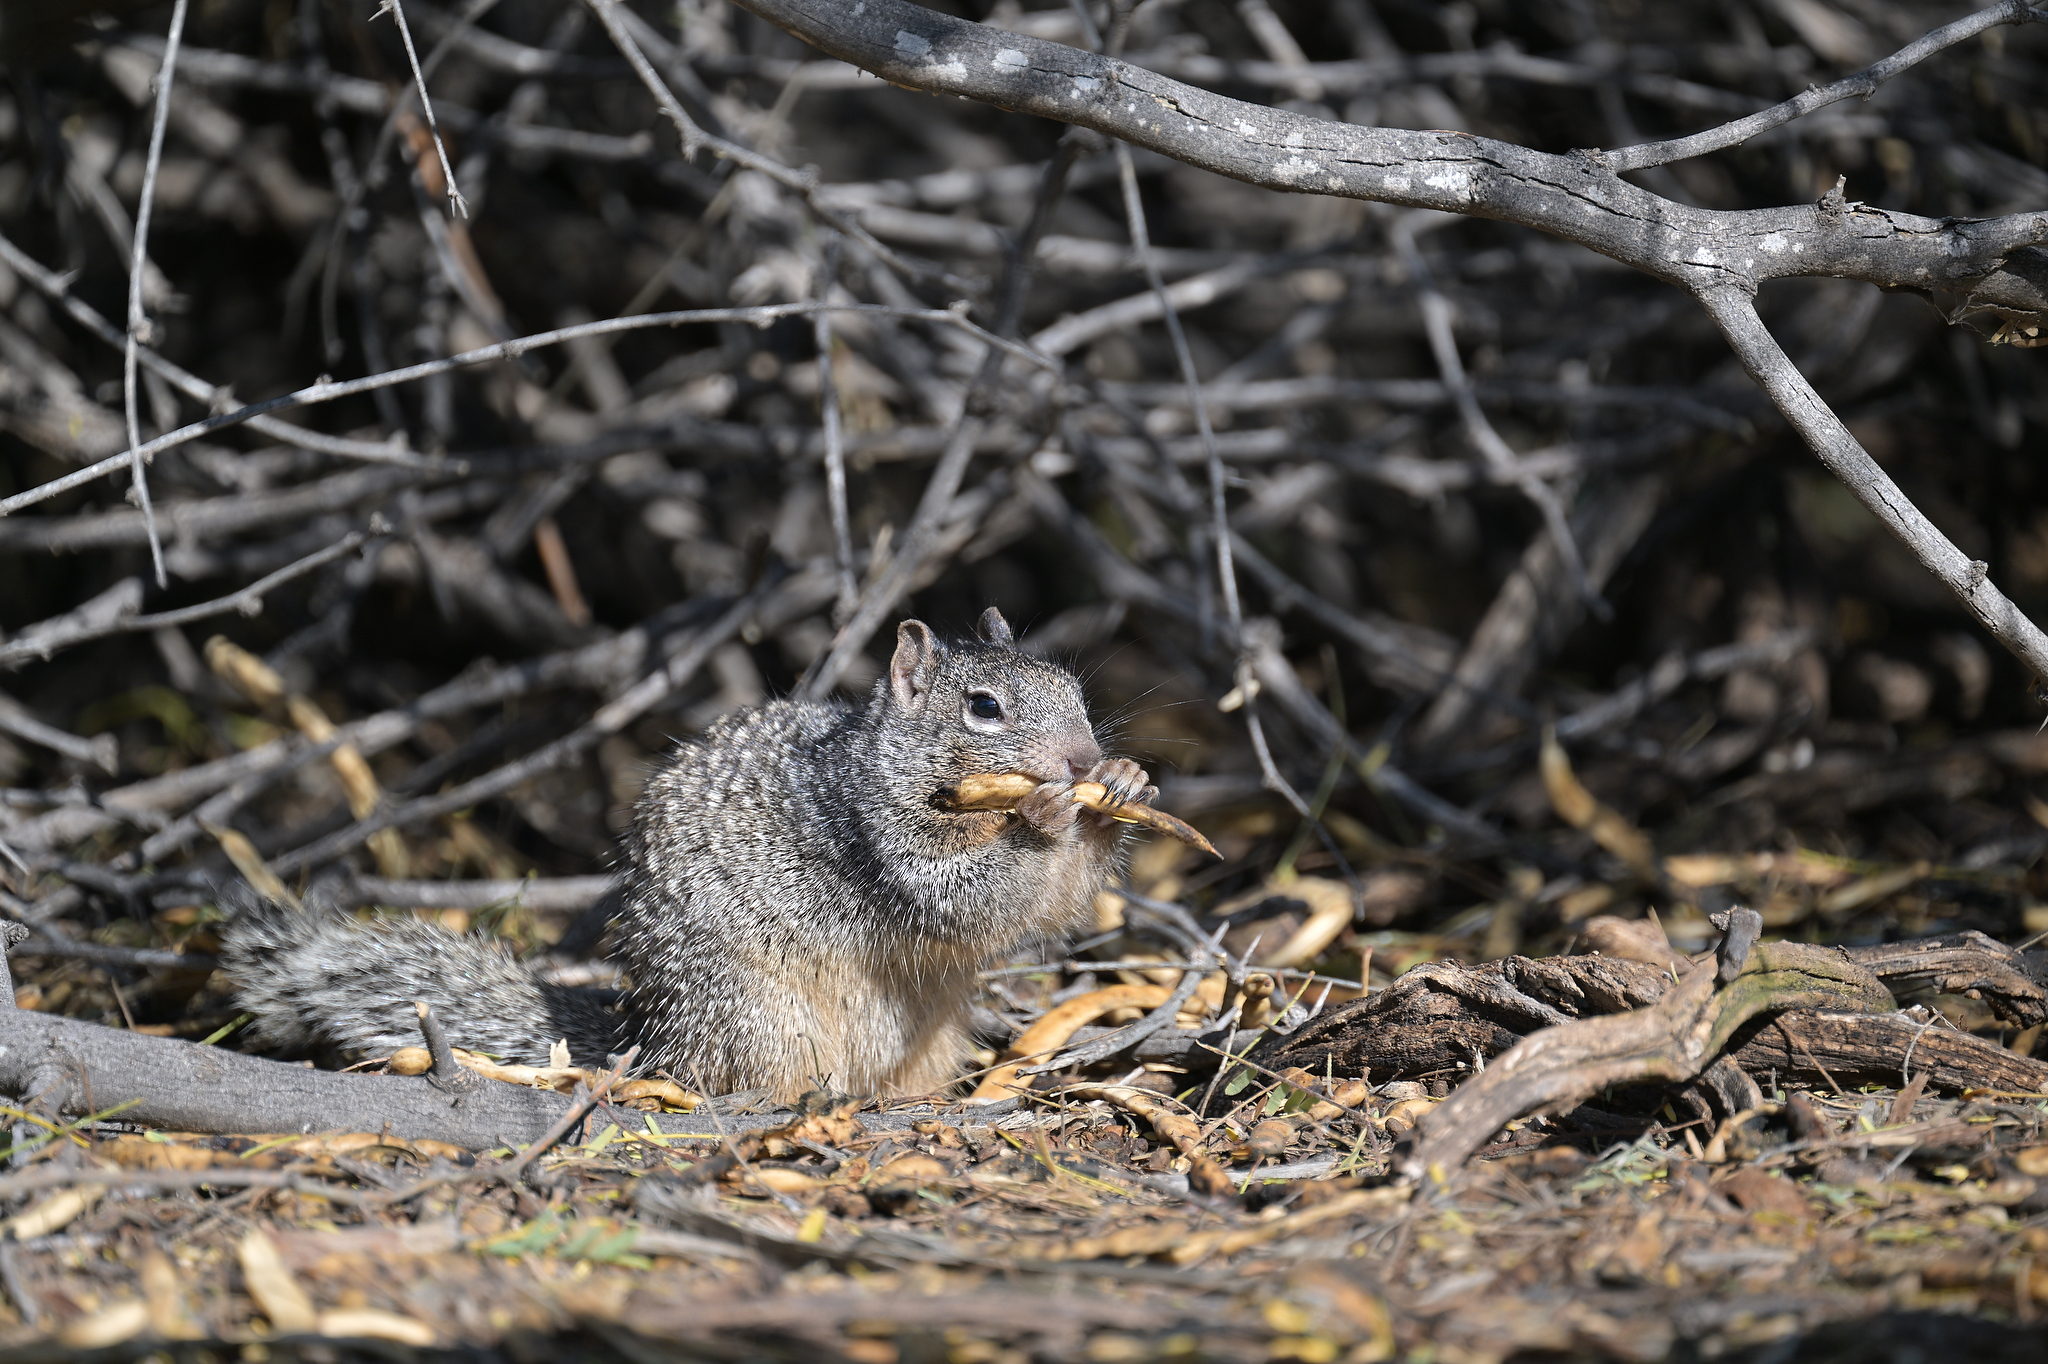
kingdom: Animalia
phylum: Chordata
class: Mammalia
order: Rodentia
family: Sciuridae
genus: Otospermophilus
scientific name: Otospermophilus variegatus
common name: Rock squirrel
